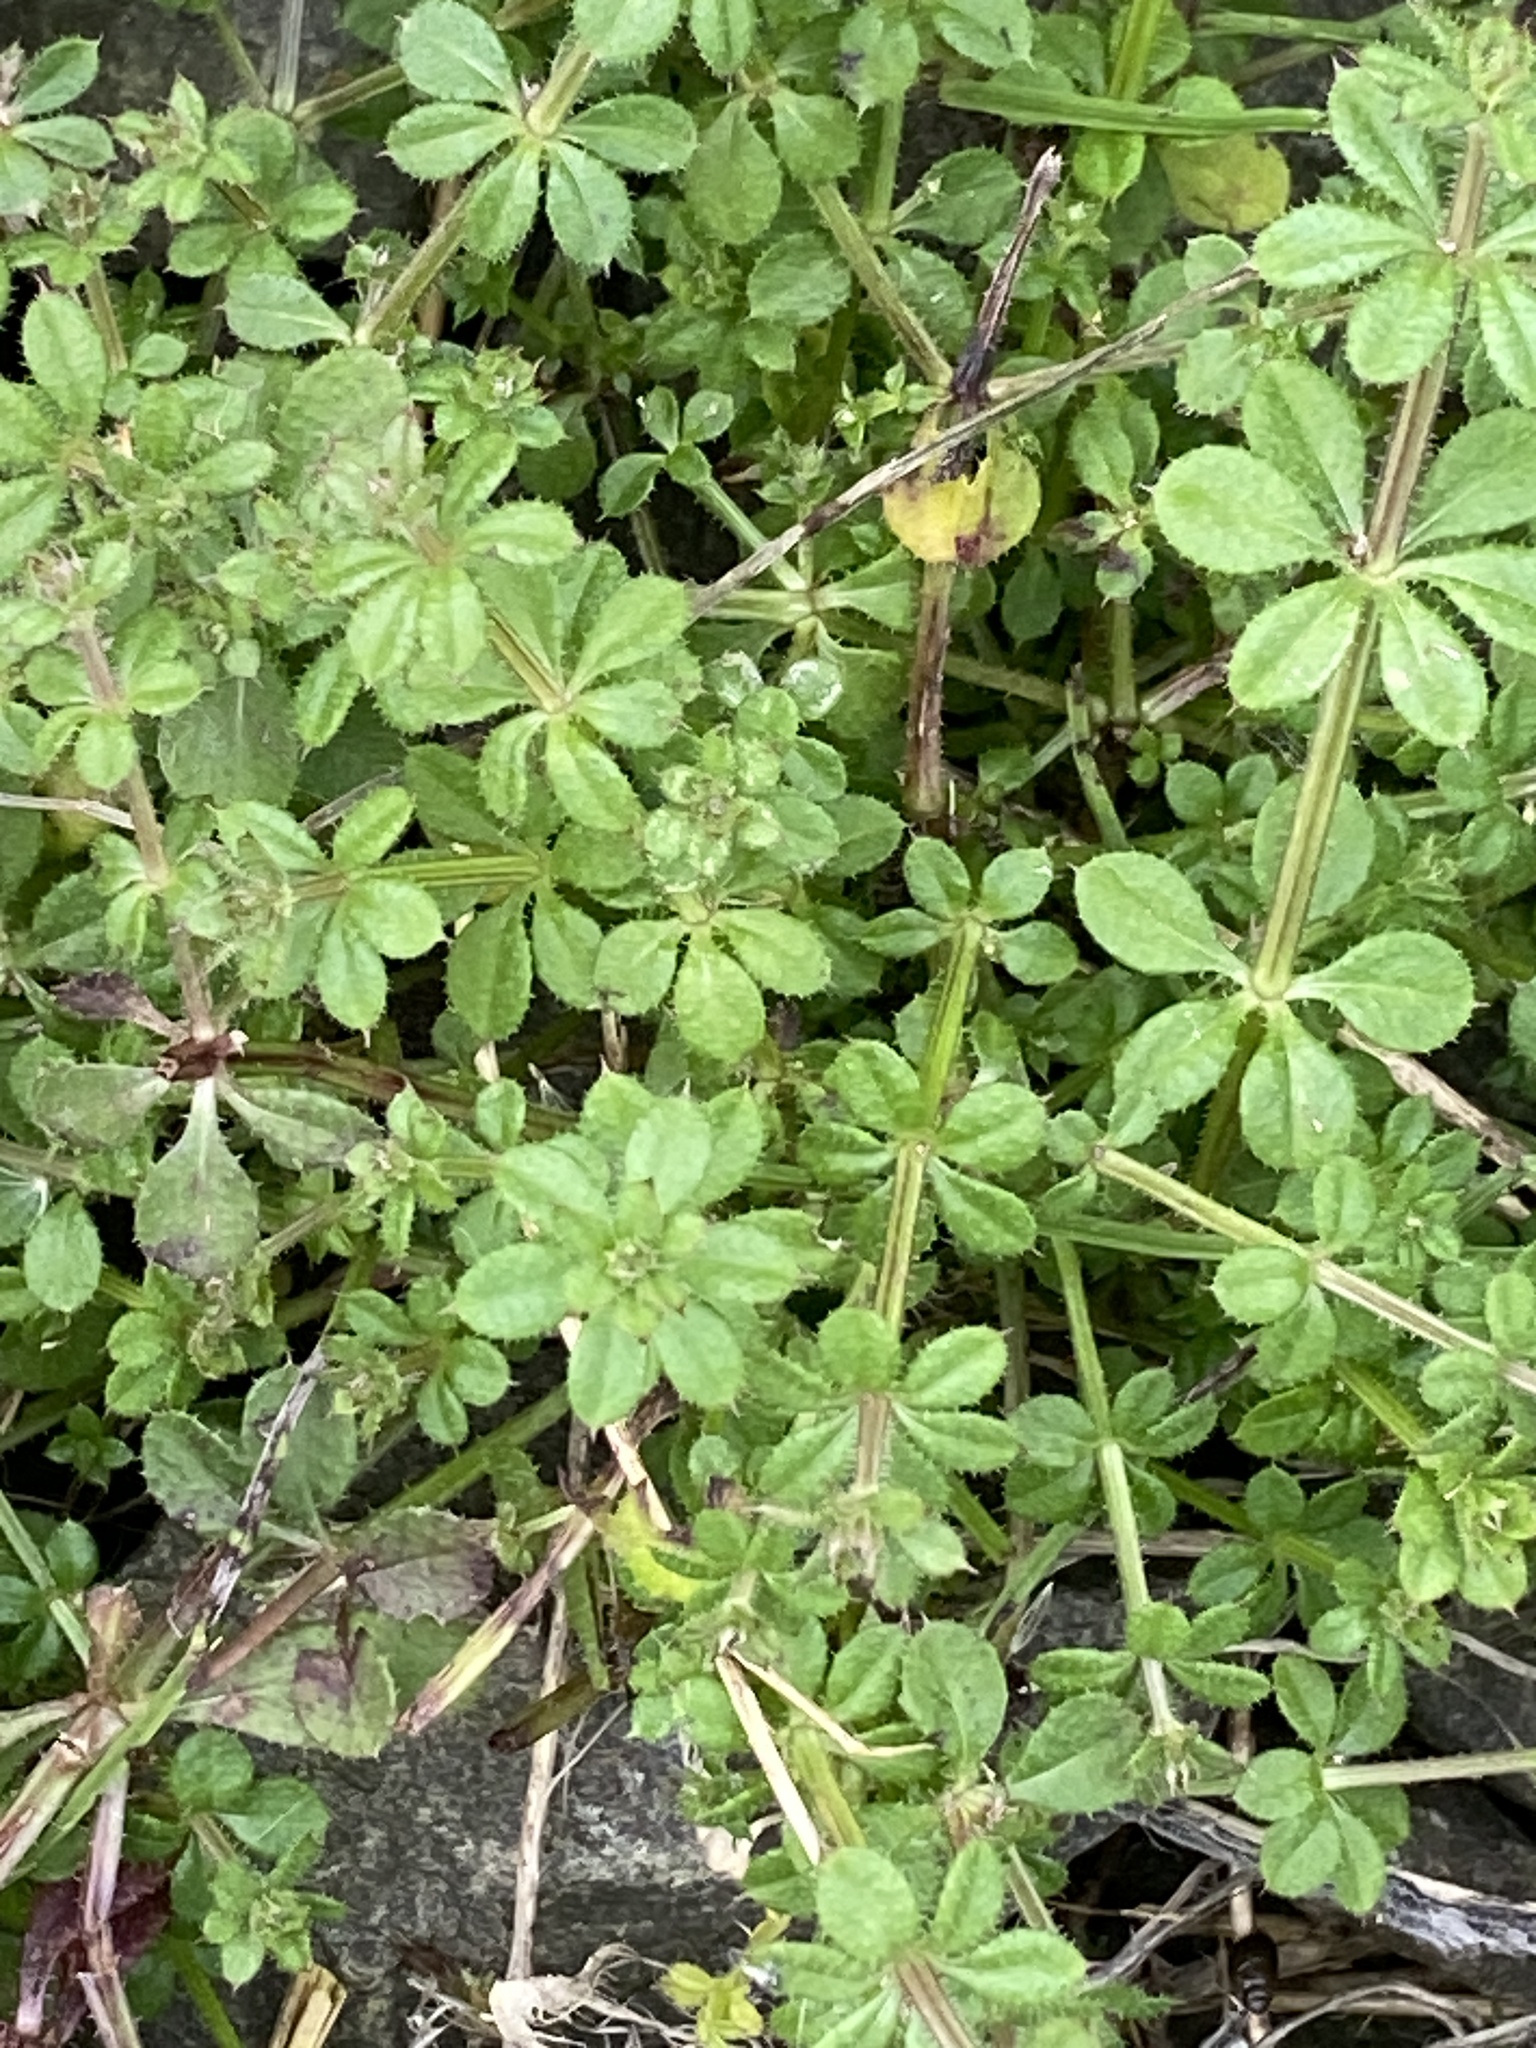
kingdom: Plantae
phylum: Tracheophyta
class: Magnoliopsida
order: Gentianales
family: Rubiaceae
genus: Galium
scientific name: Galium aparine
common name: Cleavers
